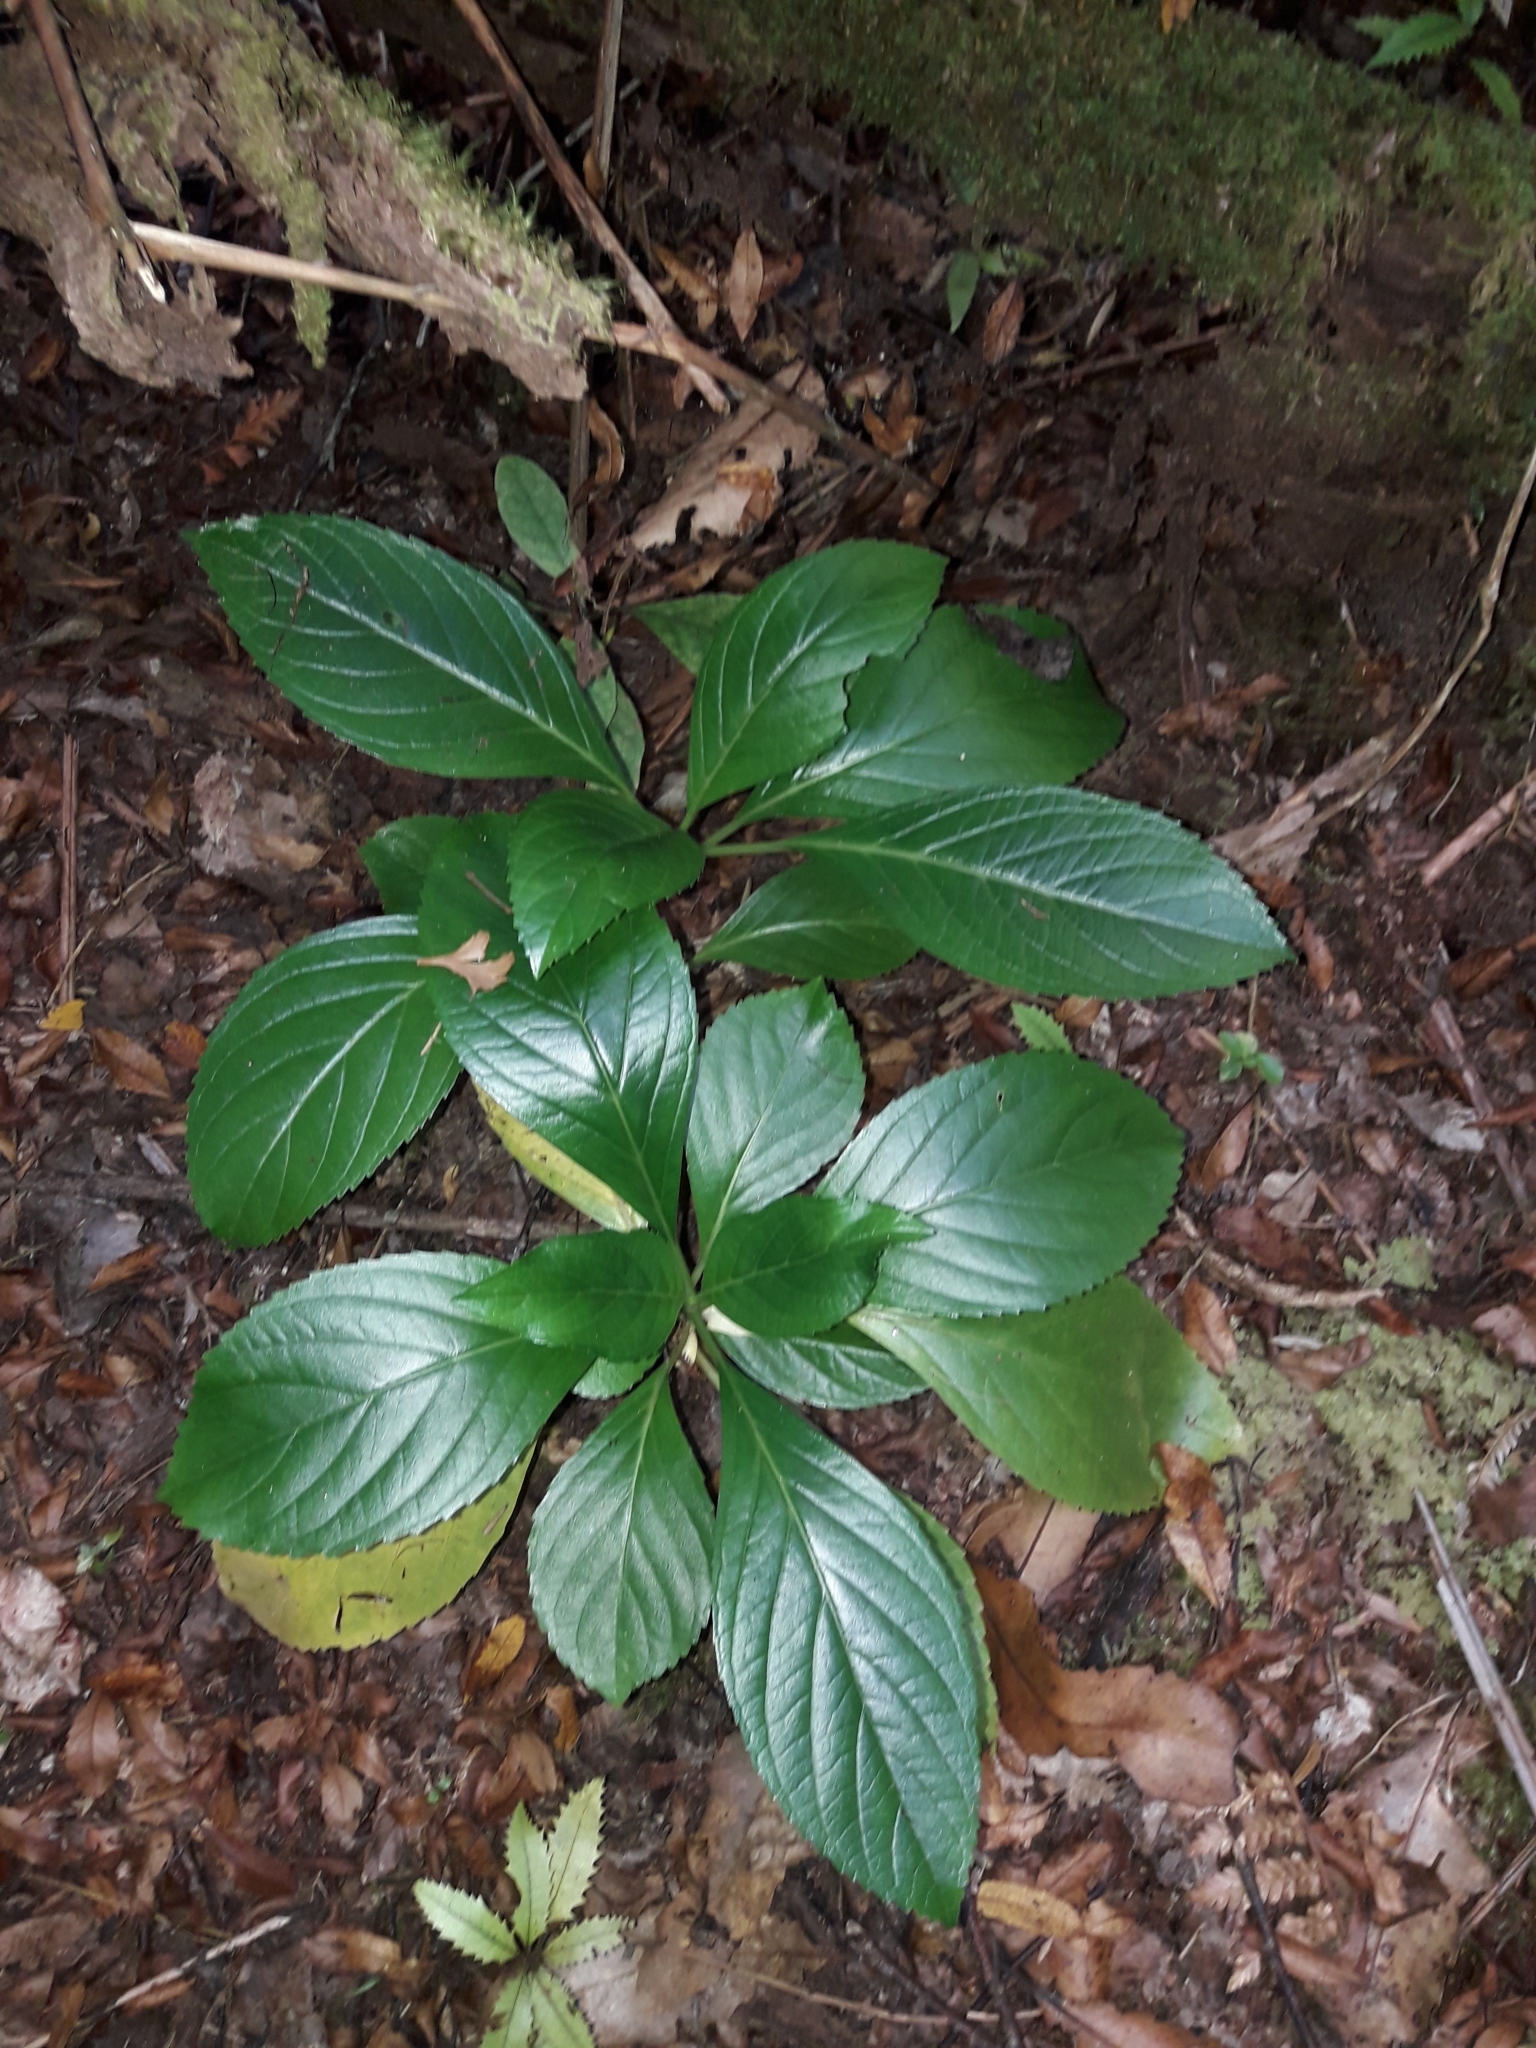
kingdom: Plantae
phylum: Tracheophyta
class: Magnoliopsida
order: Asterales
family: Campanulaceae
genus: Lobelia
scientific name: Lobelia physaloides
